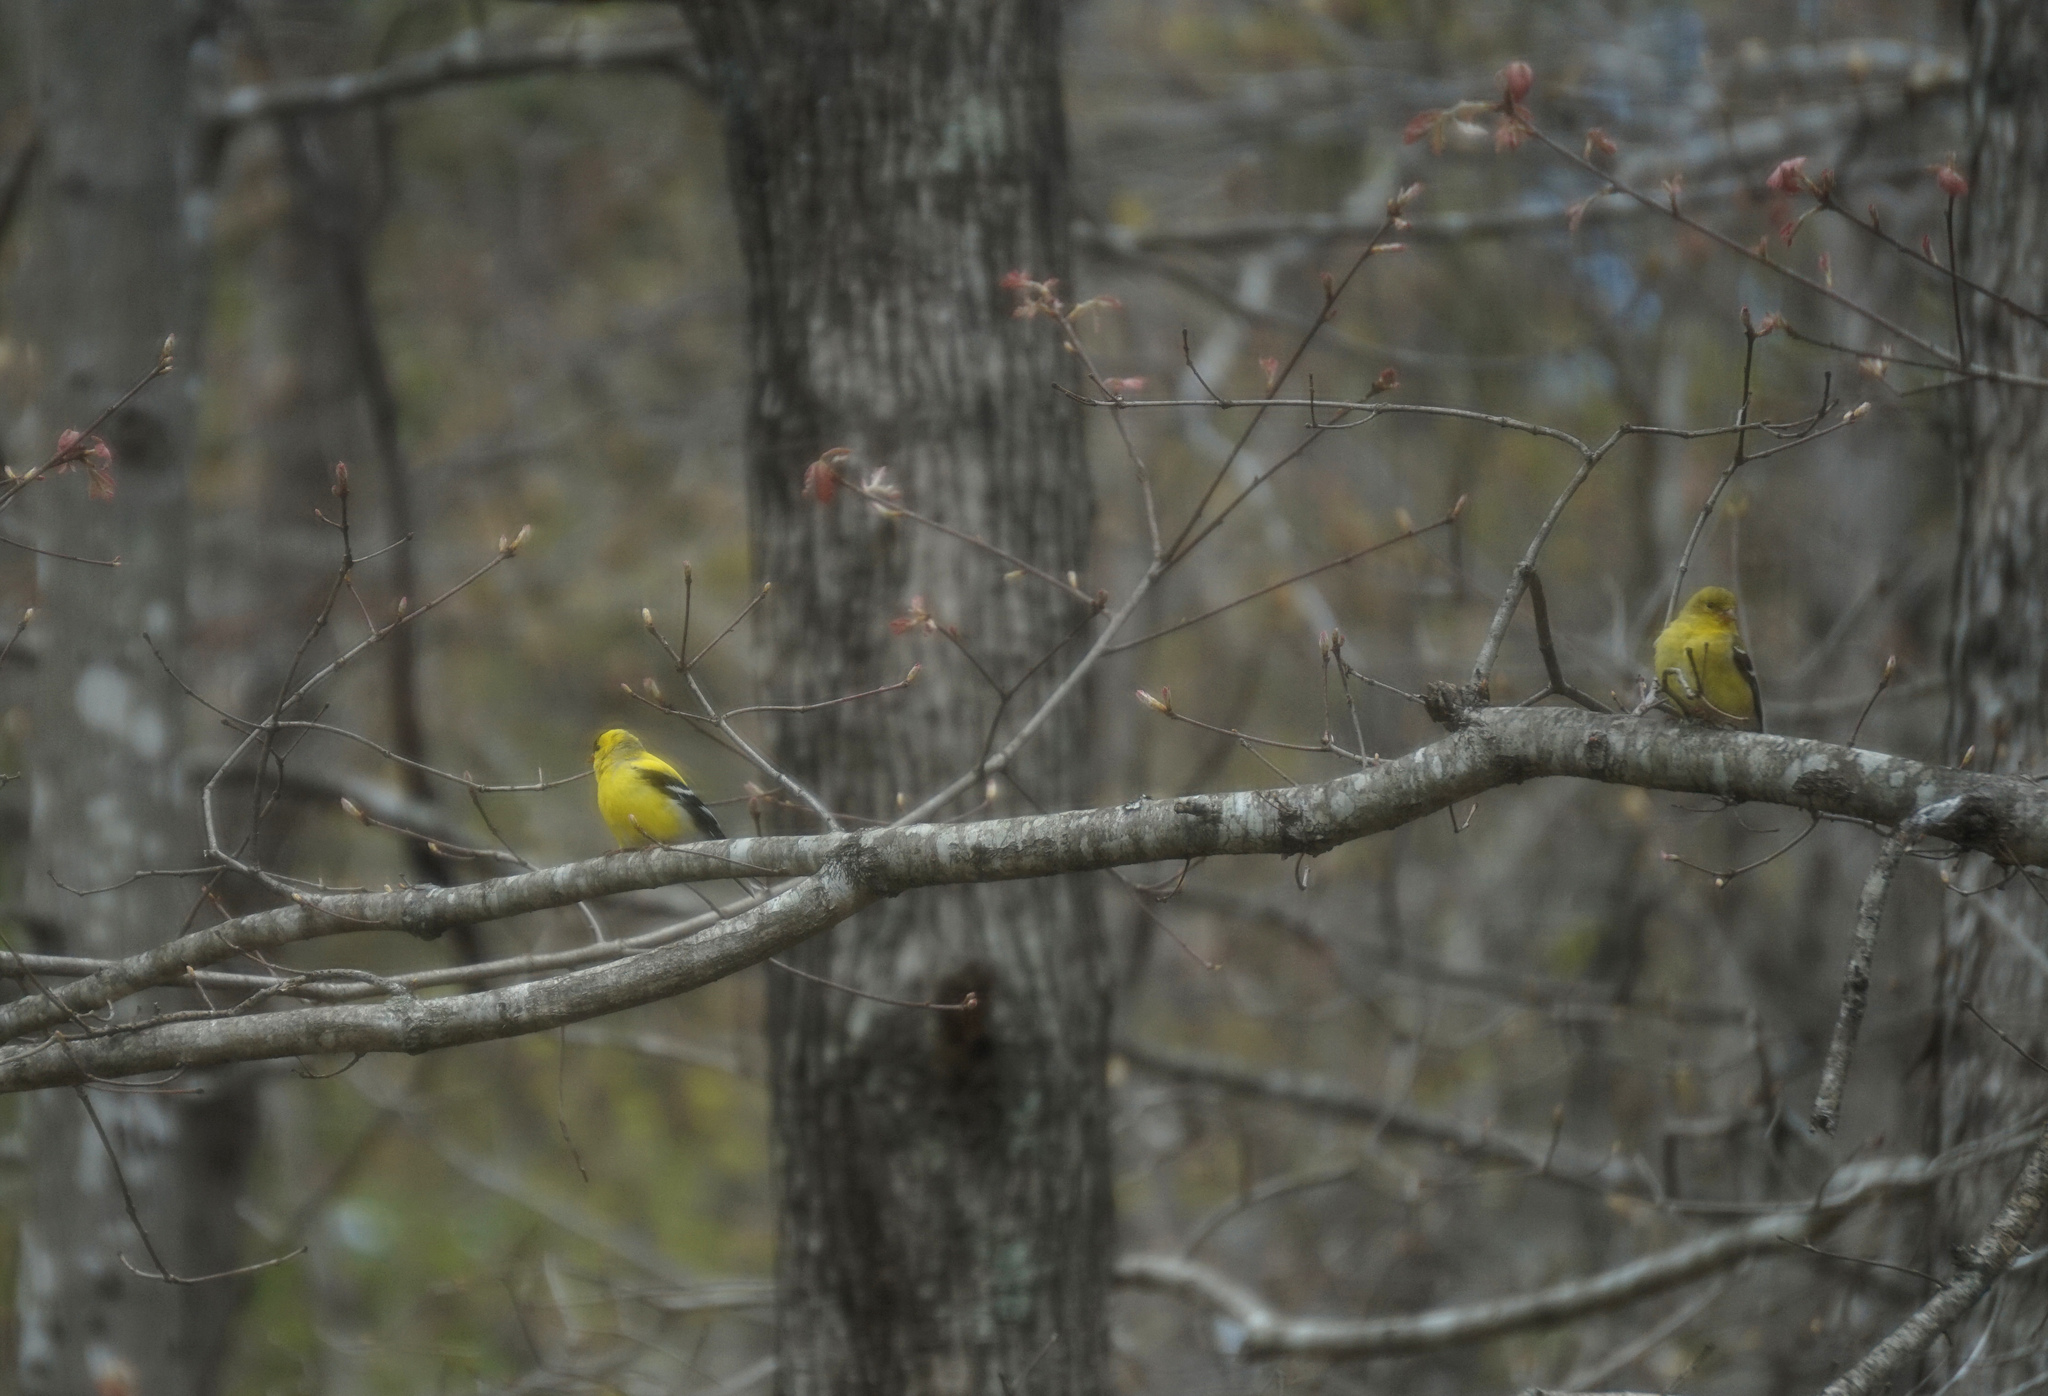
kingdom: Animalia
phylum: Chordata
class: Aves
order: Passeriformes
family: Fringillidae
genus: Spinus
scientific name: Spinus tristis
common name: American goldfinch
